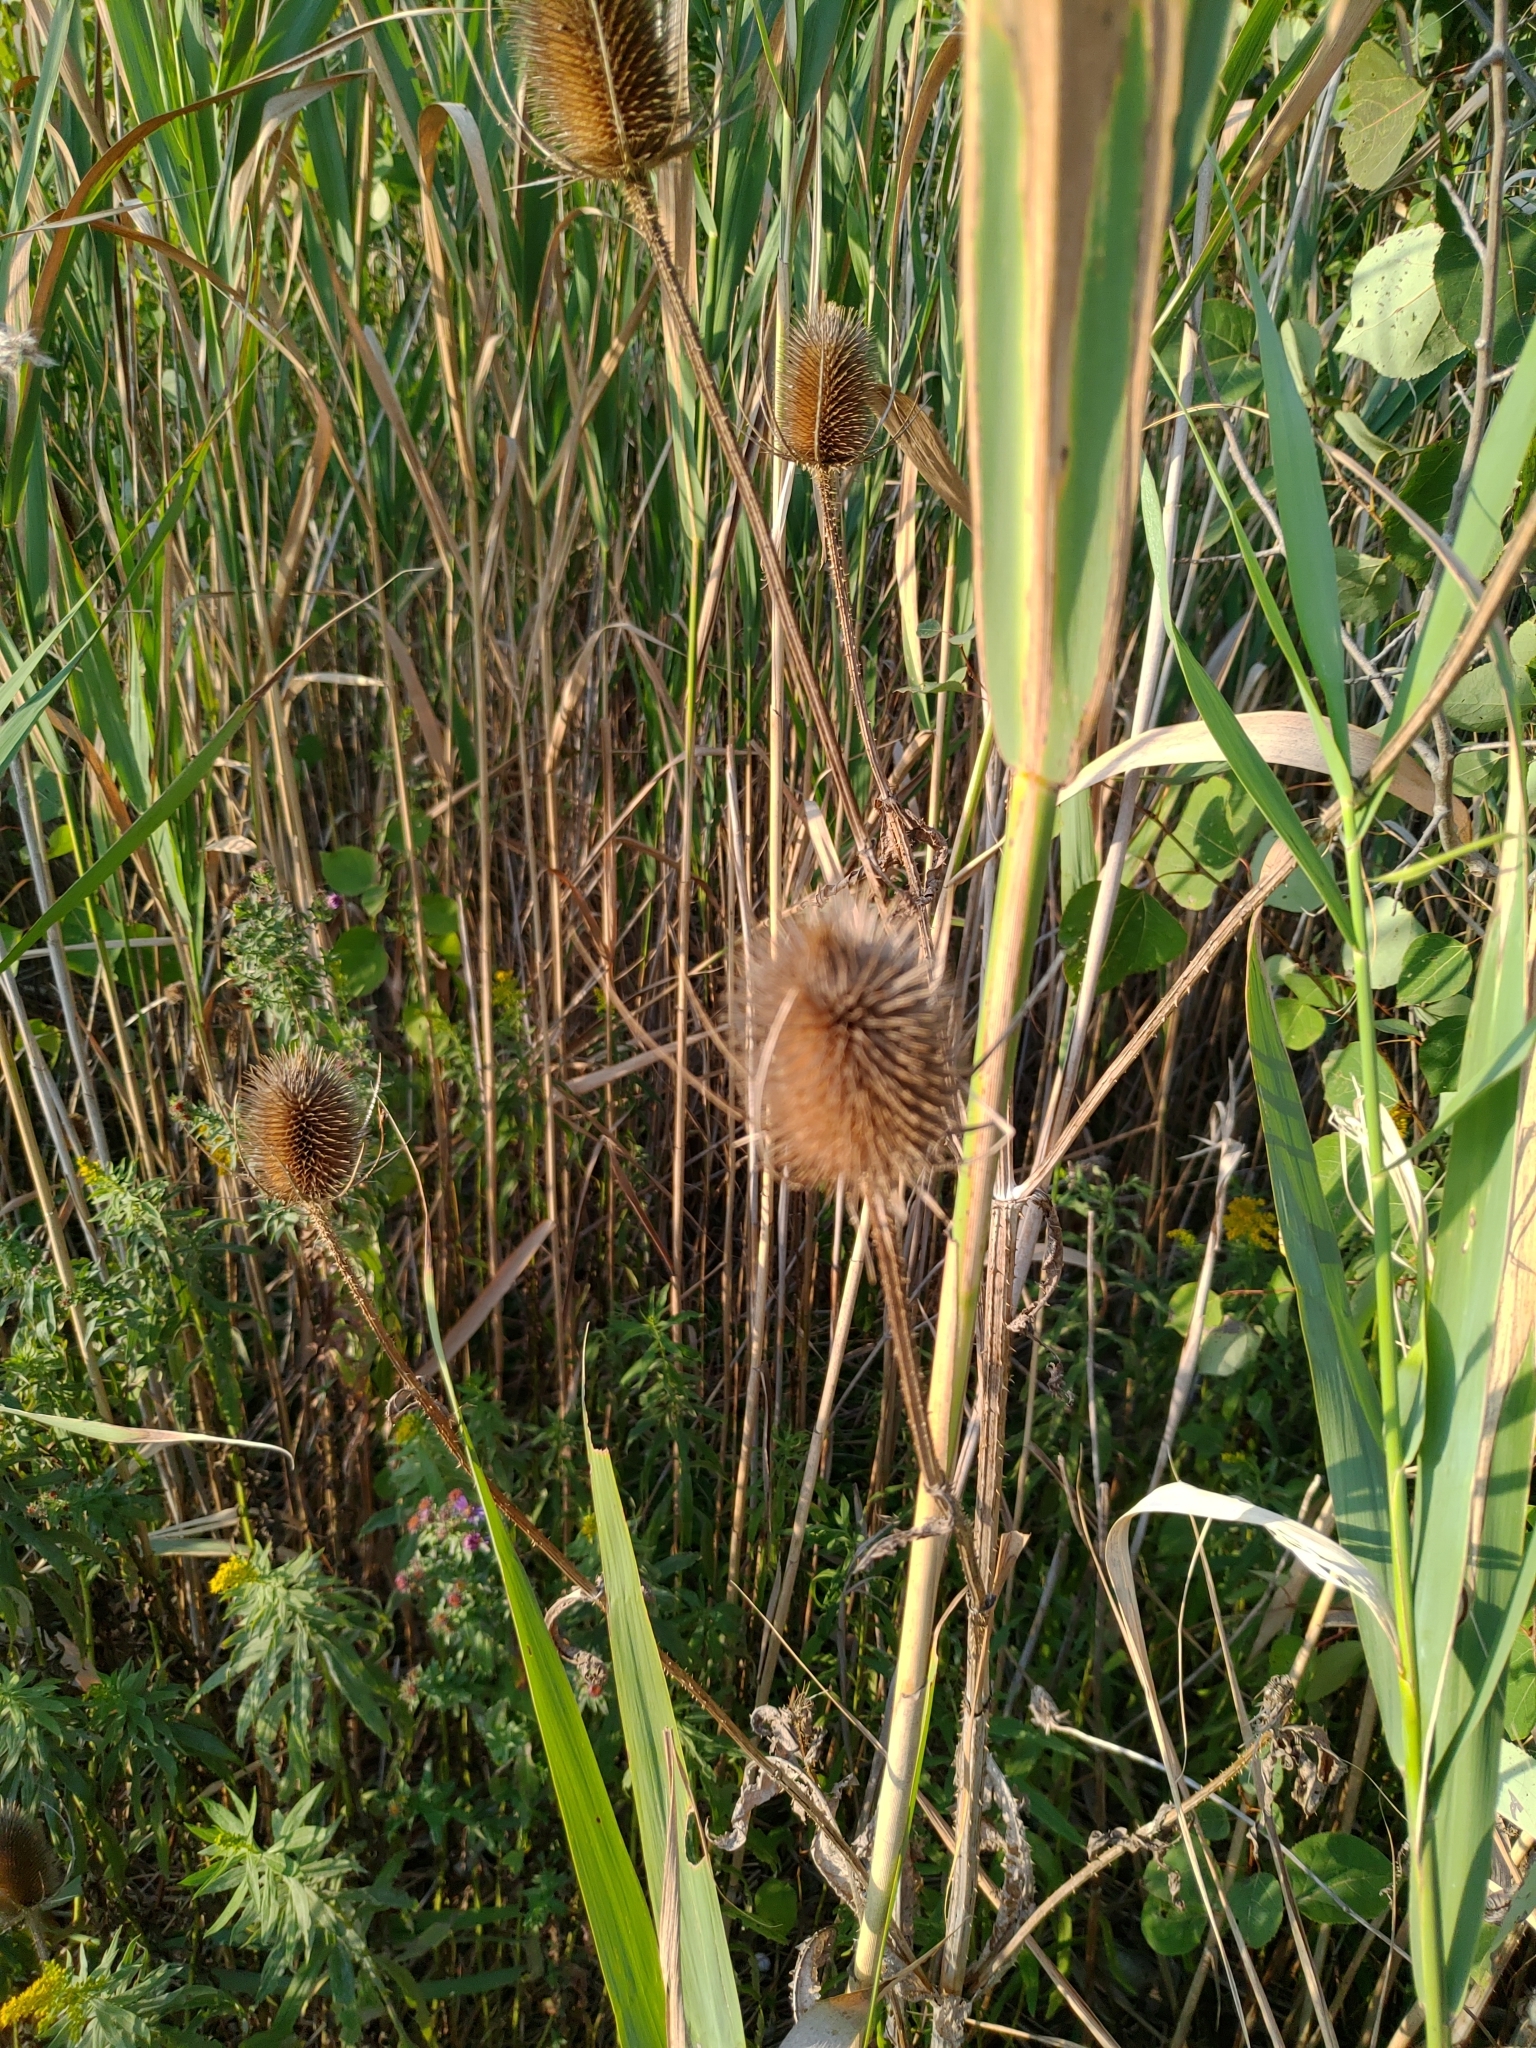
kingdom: Plantae
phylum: Tracheophyta
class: Magnoliopsida
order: Dipsacales
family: Caprifoliaceae
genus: Dipsacus
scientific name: Dipsacus fullonum
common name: Teasel
